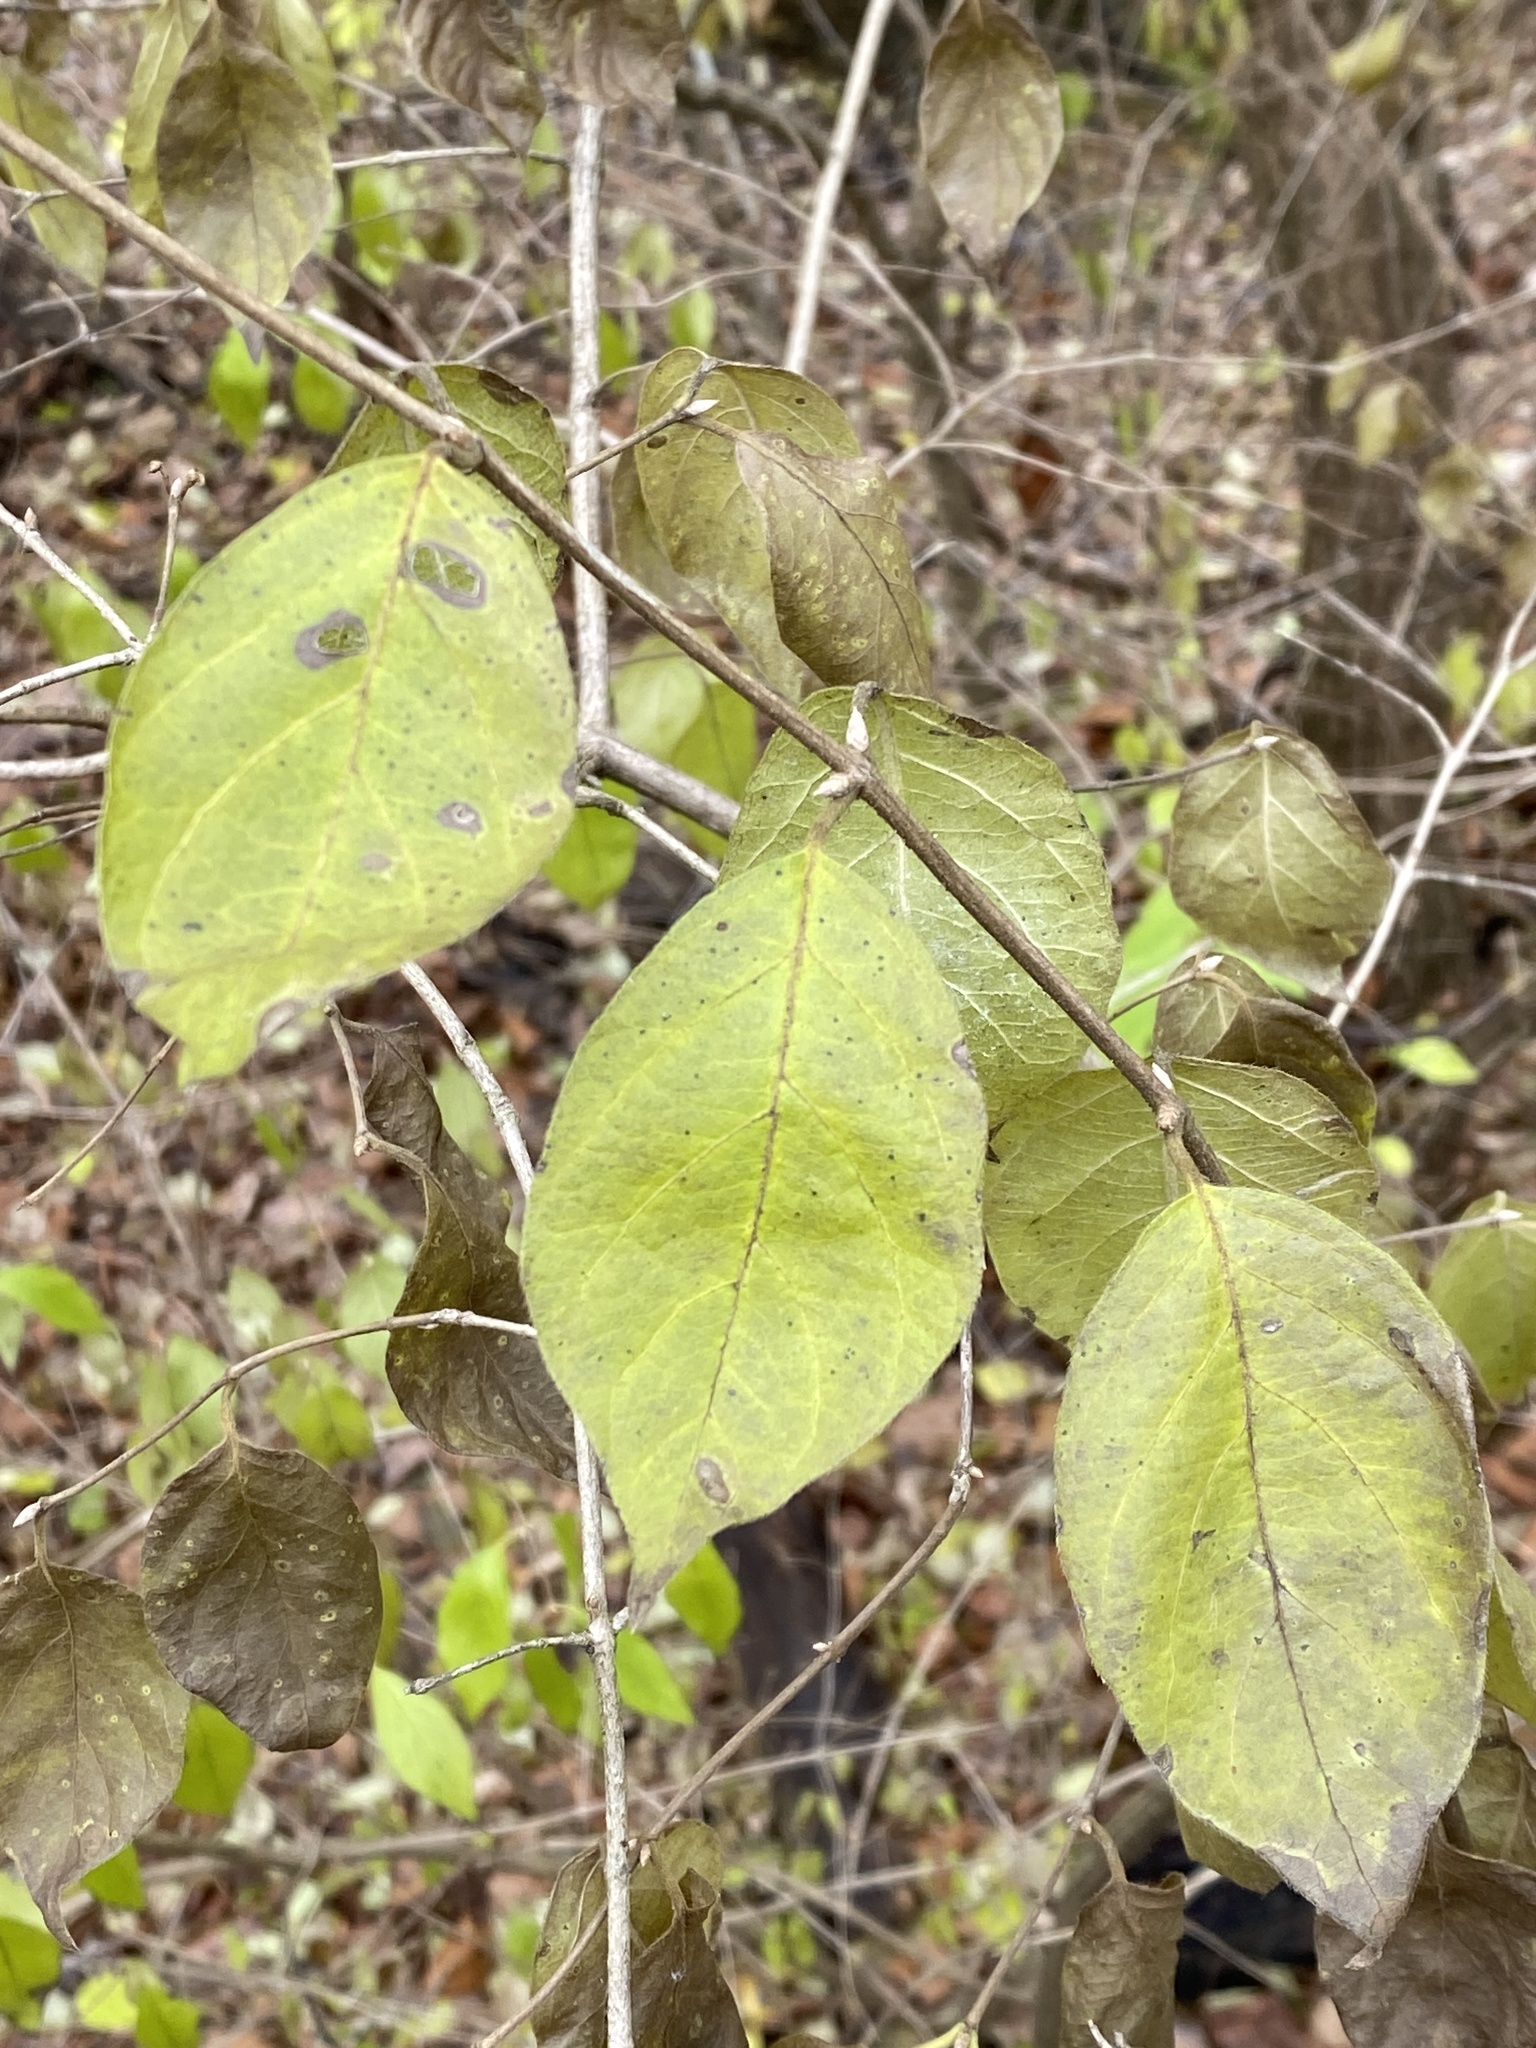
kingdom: Plantae
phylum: Tracheophyta
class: Magnoliopsida
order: Dipsacales
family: Caprifoliaceae
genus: Lonicera
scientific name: Lonicera maackii
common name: Amur honeysuckle
